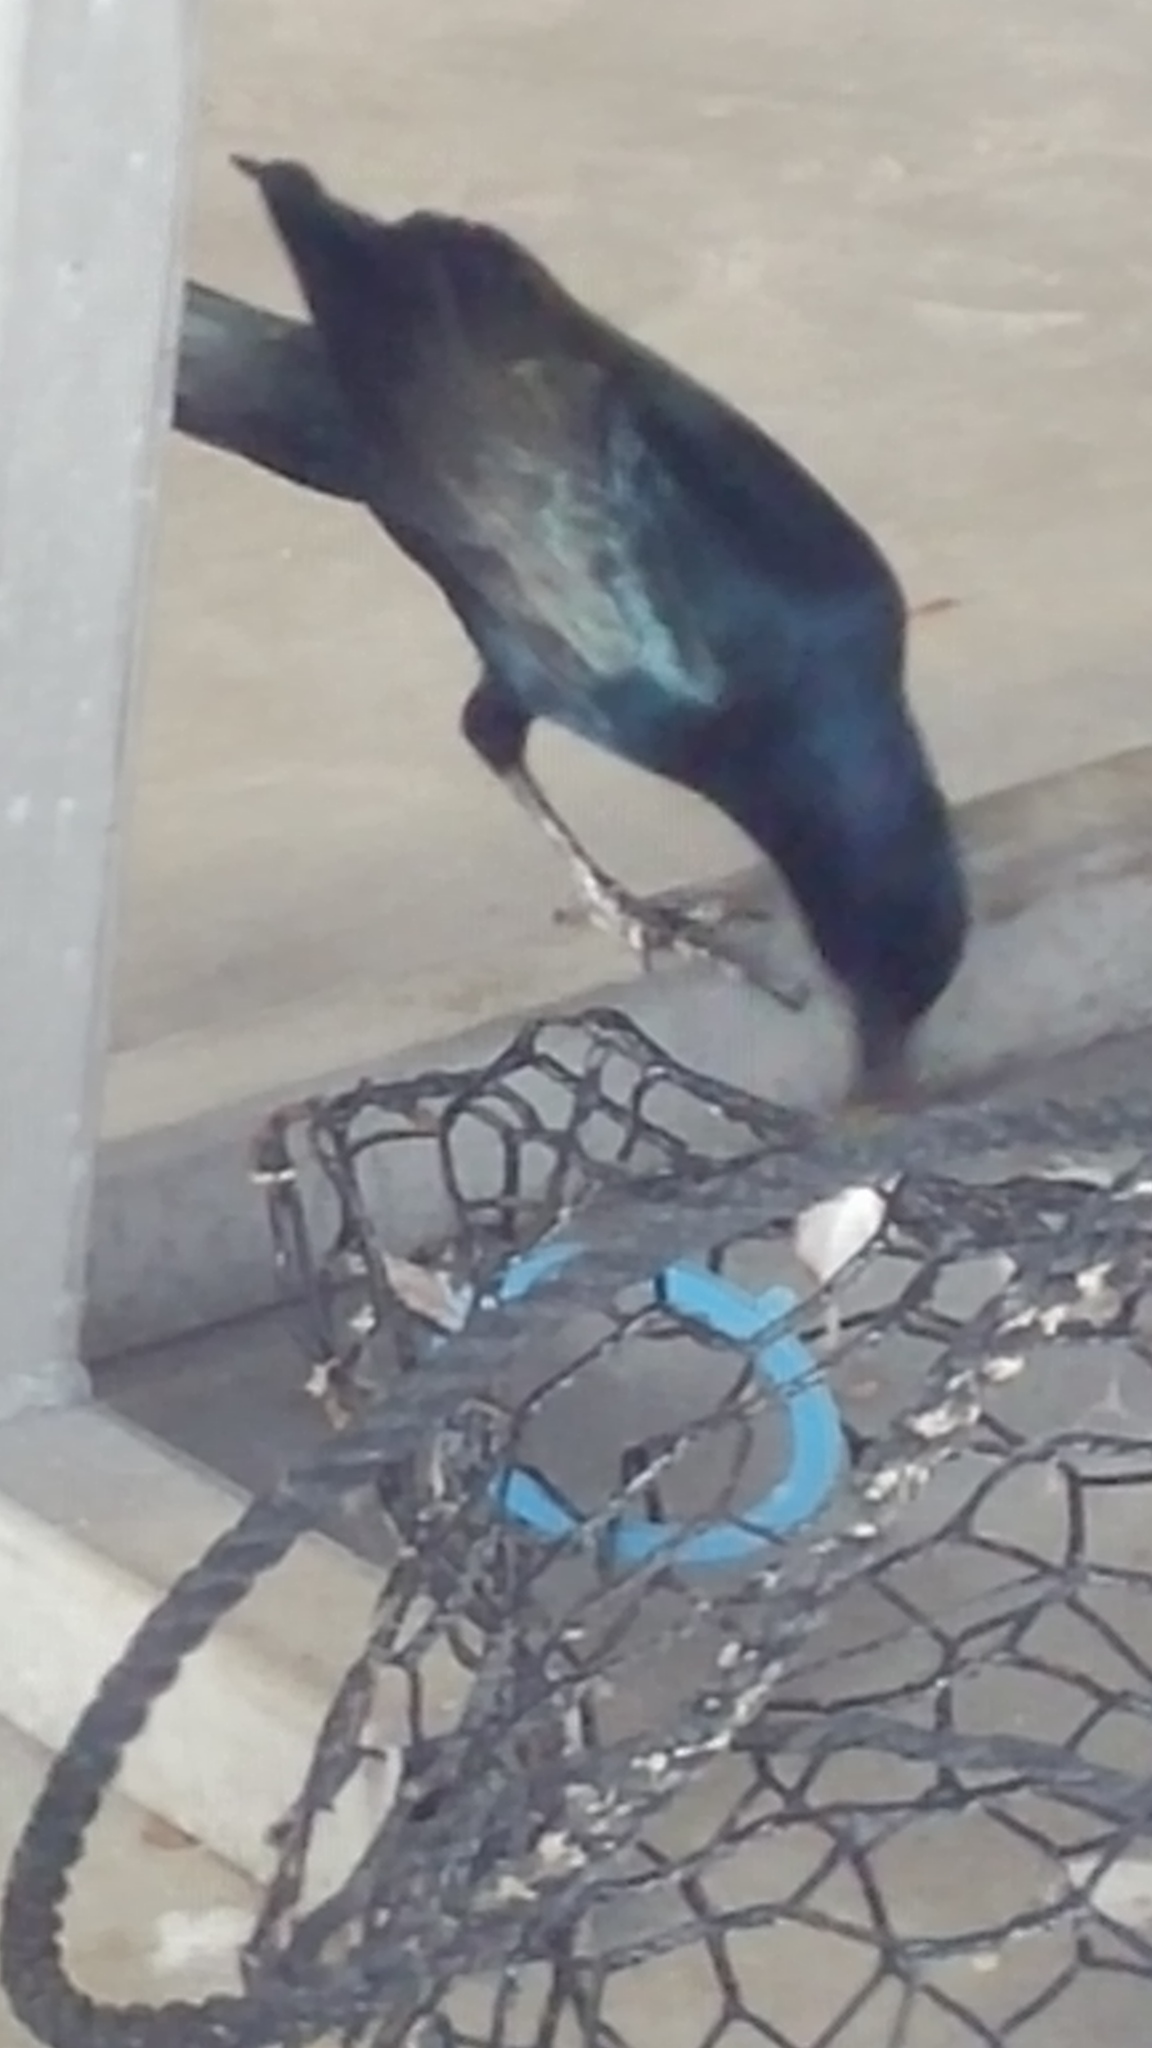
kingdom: Animalia
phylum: Chordata
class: Aves
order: Passeriformes
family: Icteridae
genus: Quiscalus
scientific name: Quiscalus major
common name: Boat-tailed grackle
